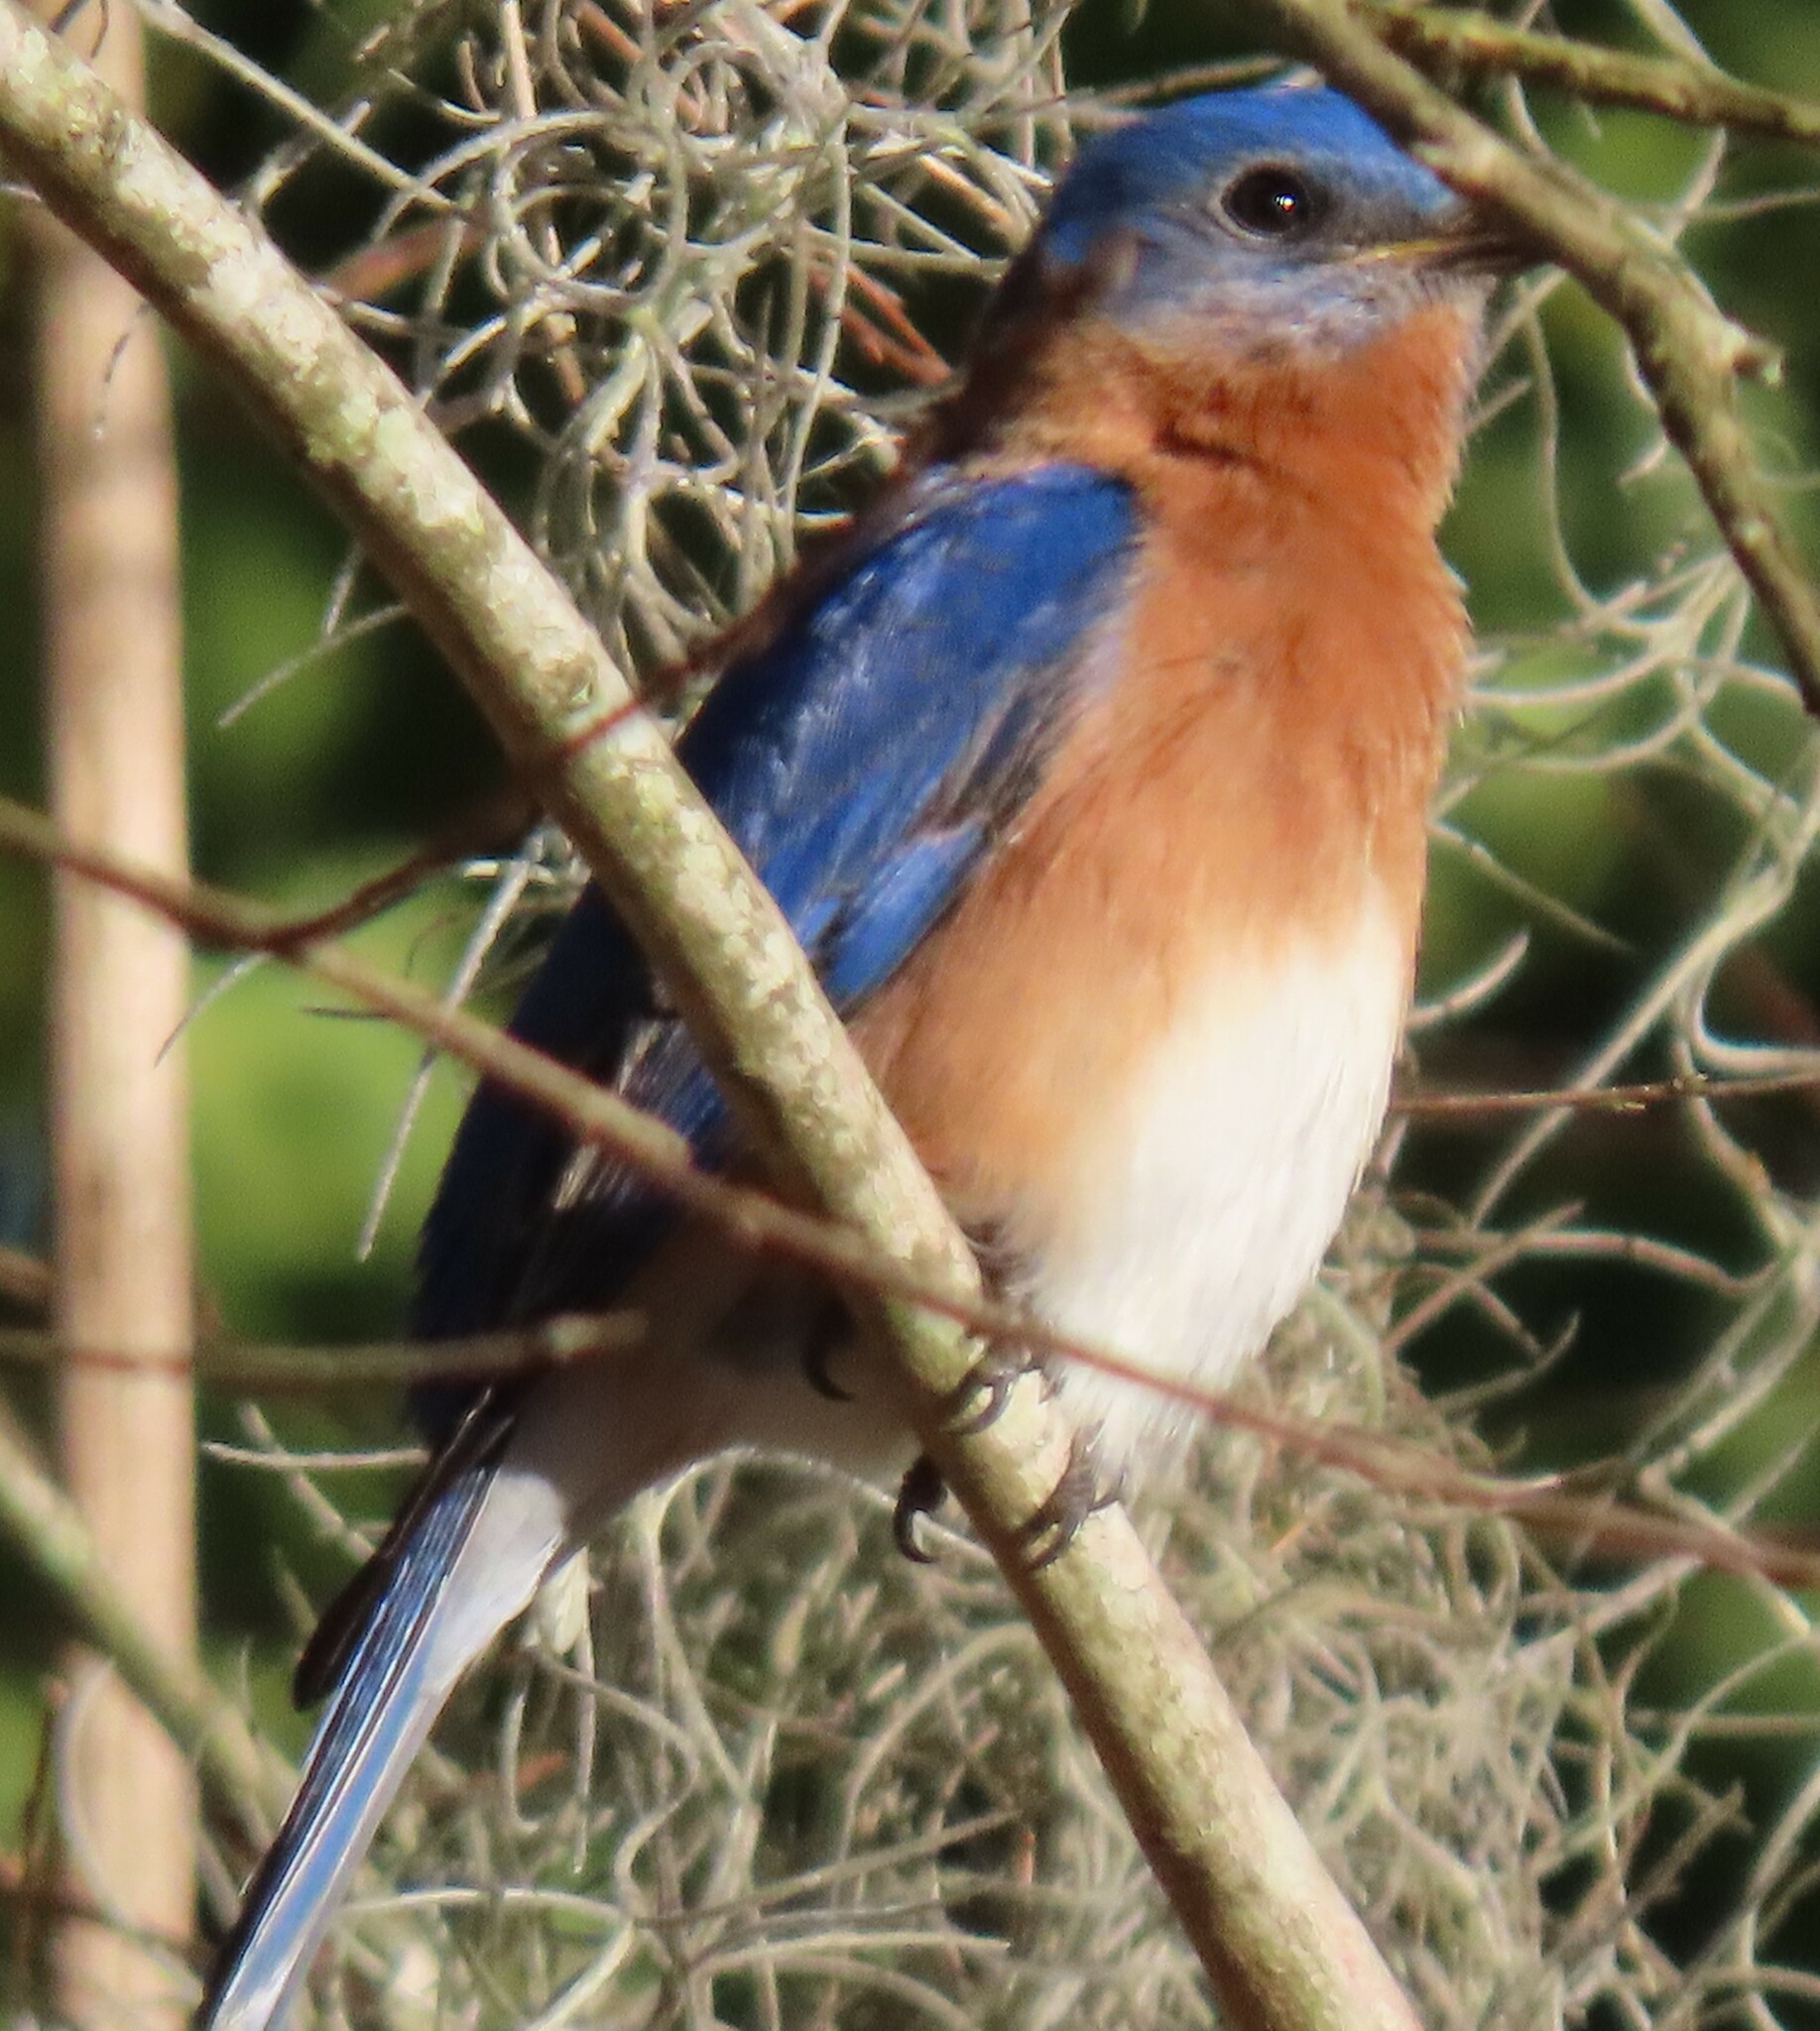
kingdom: Animalia
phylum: Chordata
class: Aves
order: Passeriformes
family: Turdidae
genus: Sialia
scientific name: Sialia sialis
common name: Eastern bluebird
